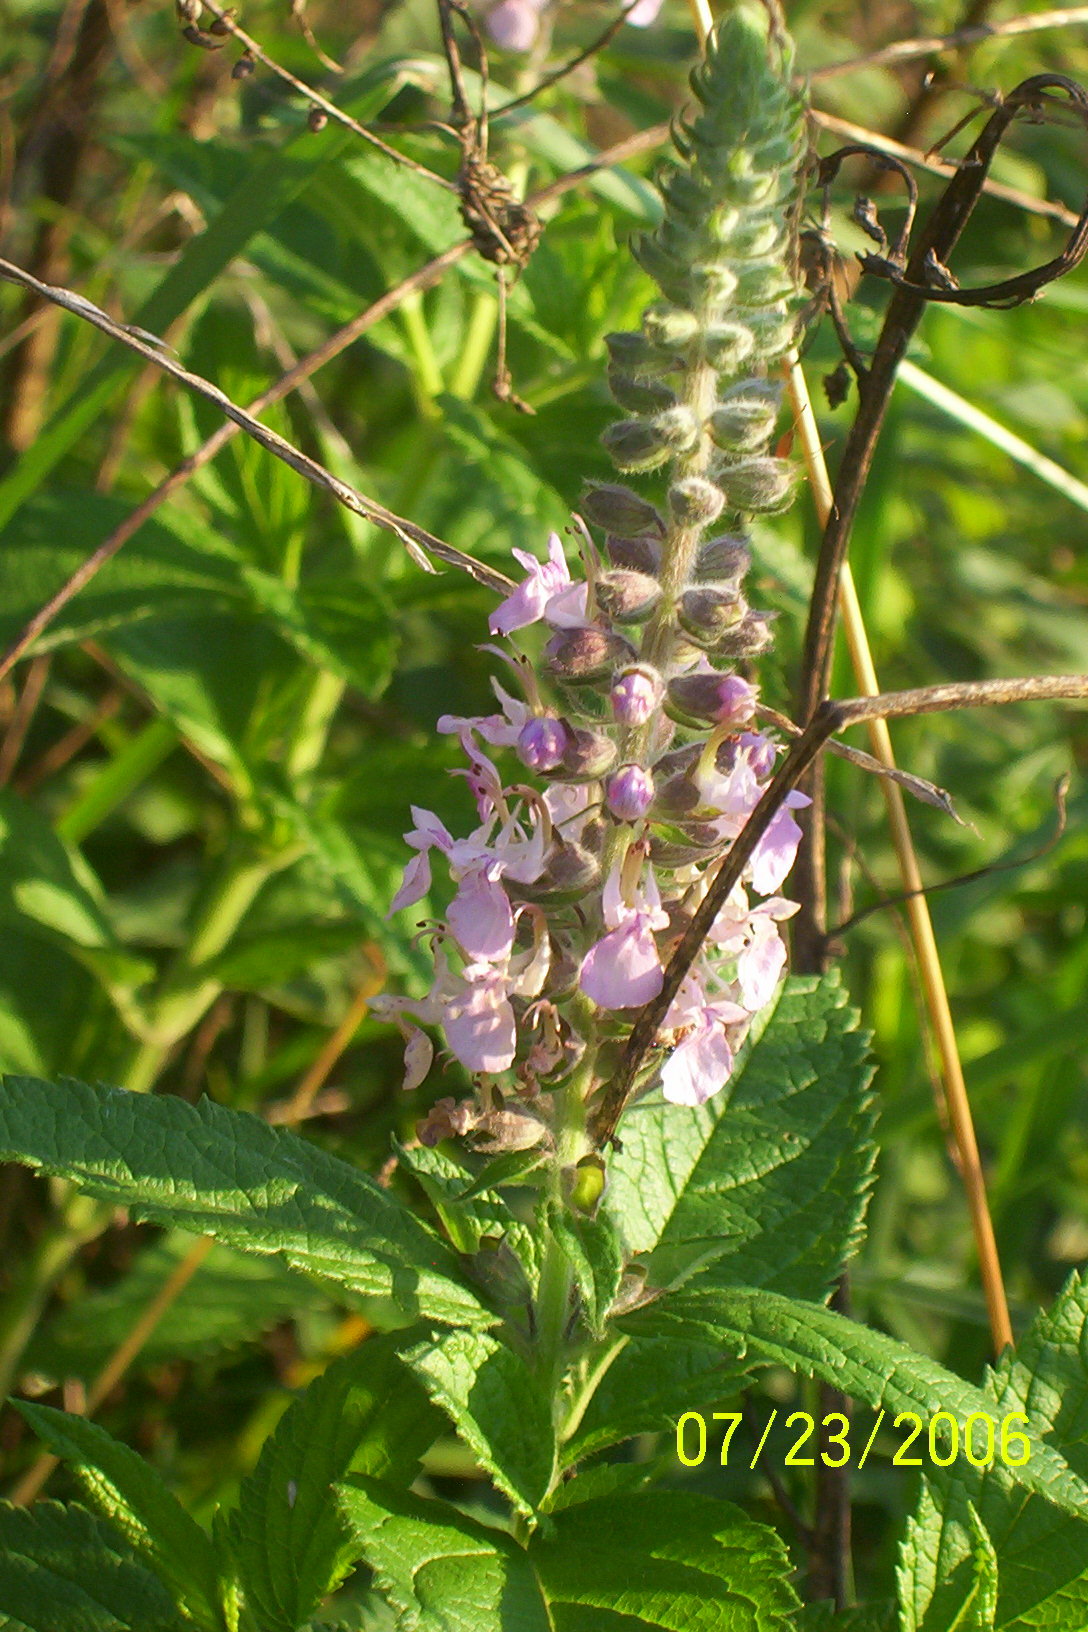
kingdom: Plantae
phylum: Tracheophyta
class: Magnoliopsida
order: Lamiales
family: Lamiaceae
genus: Teucrium
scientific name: Teucrium canadense
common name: American germander
